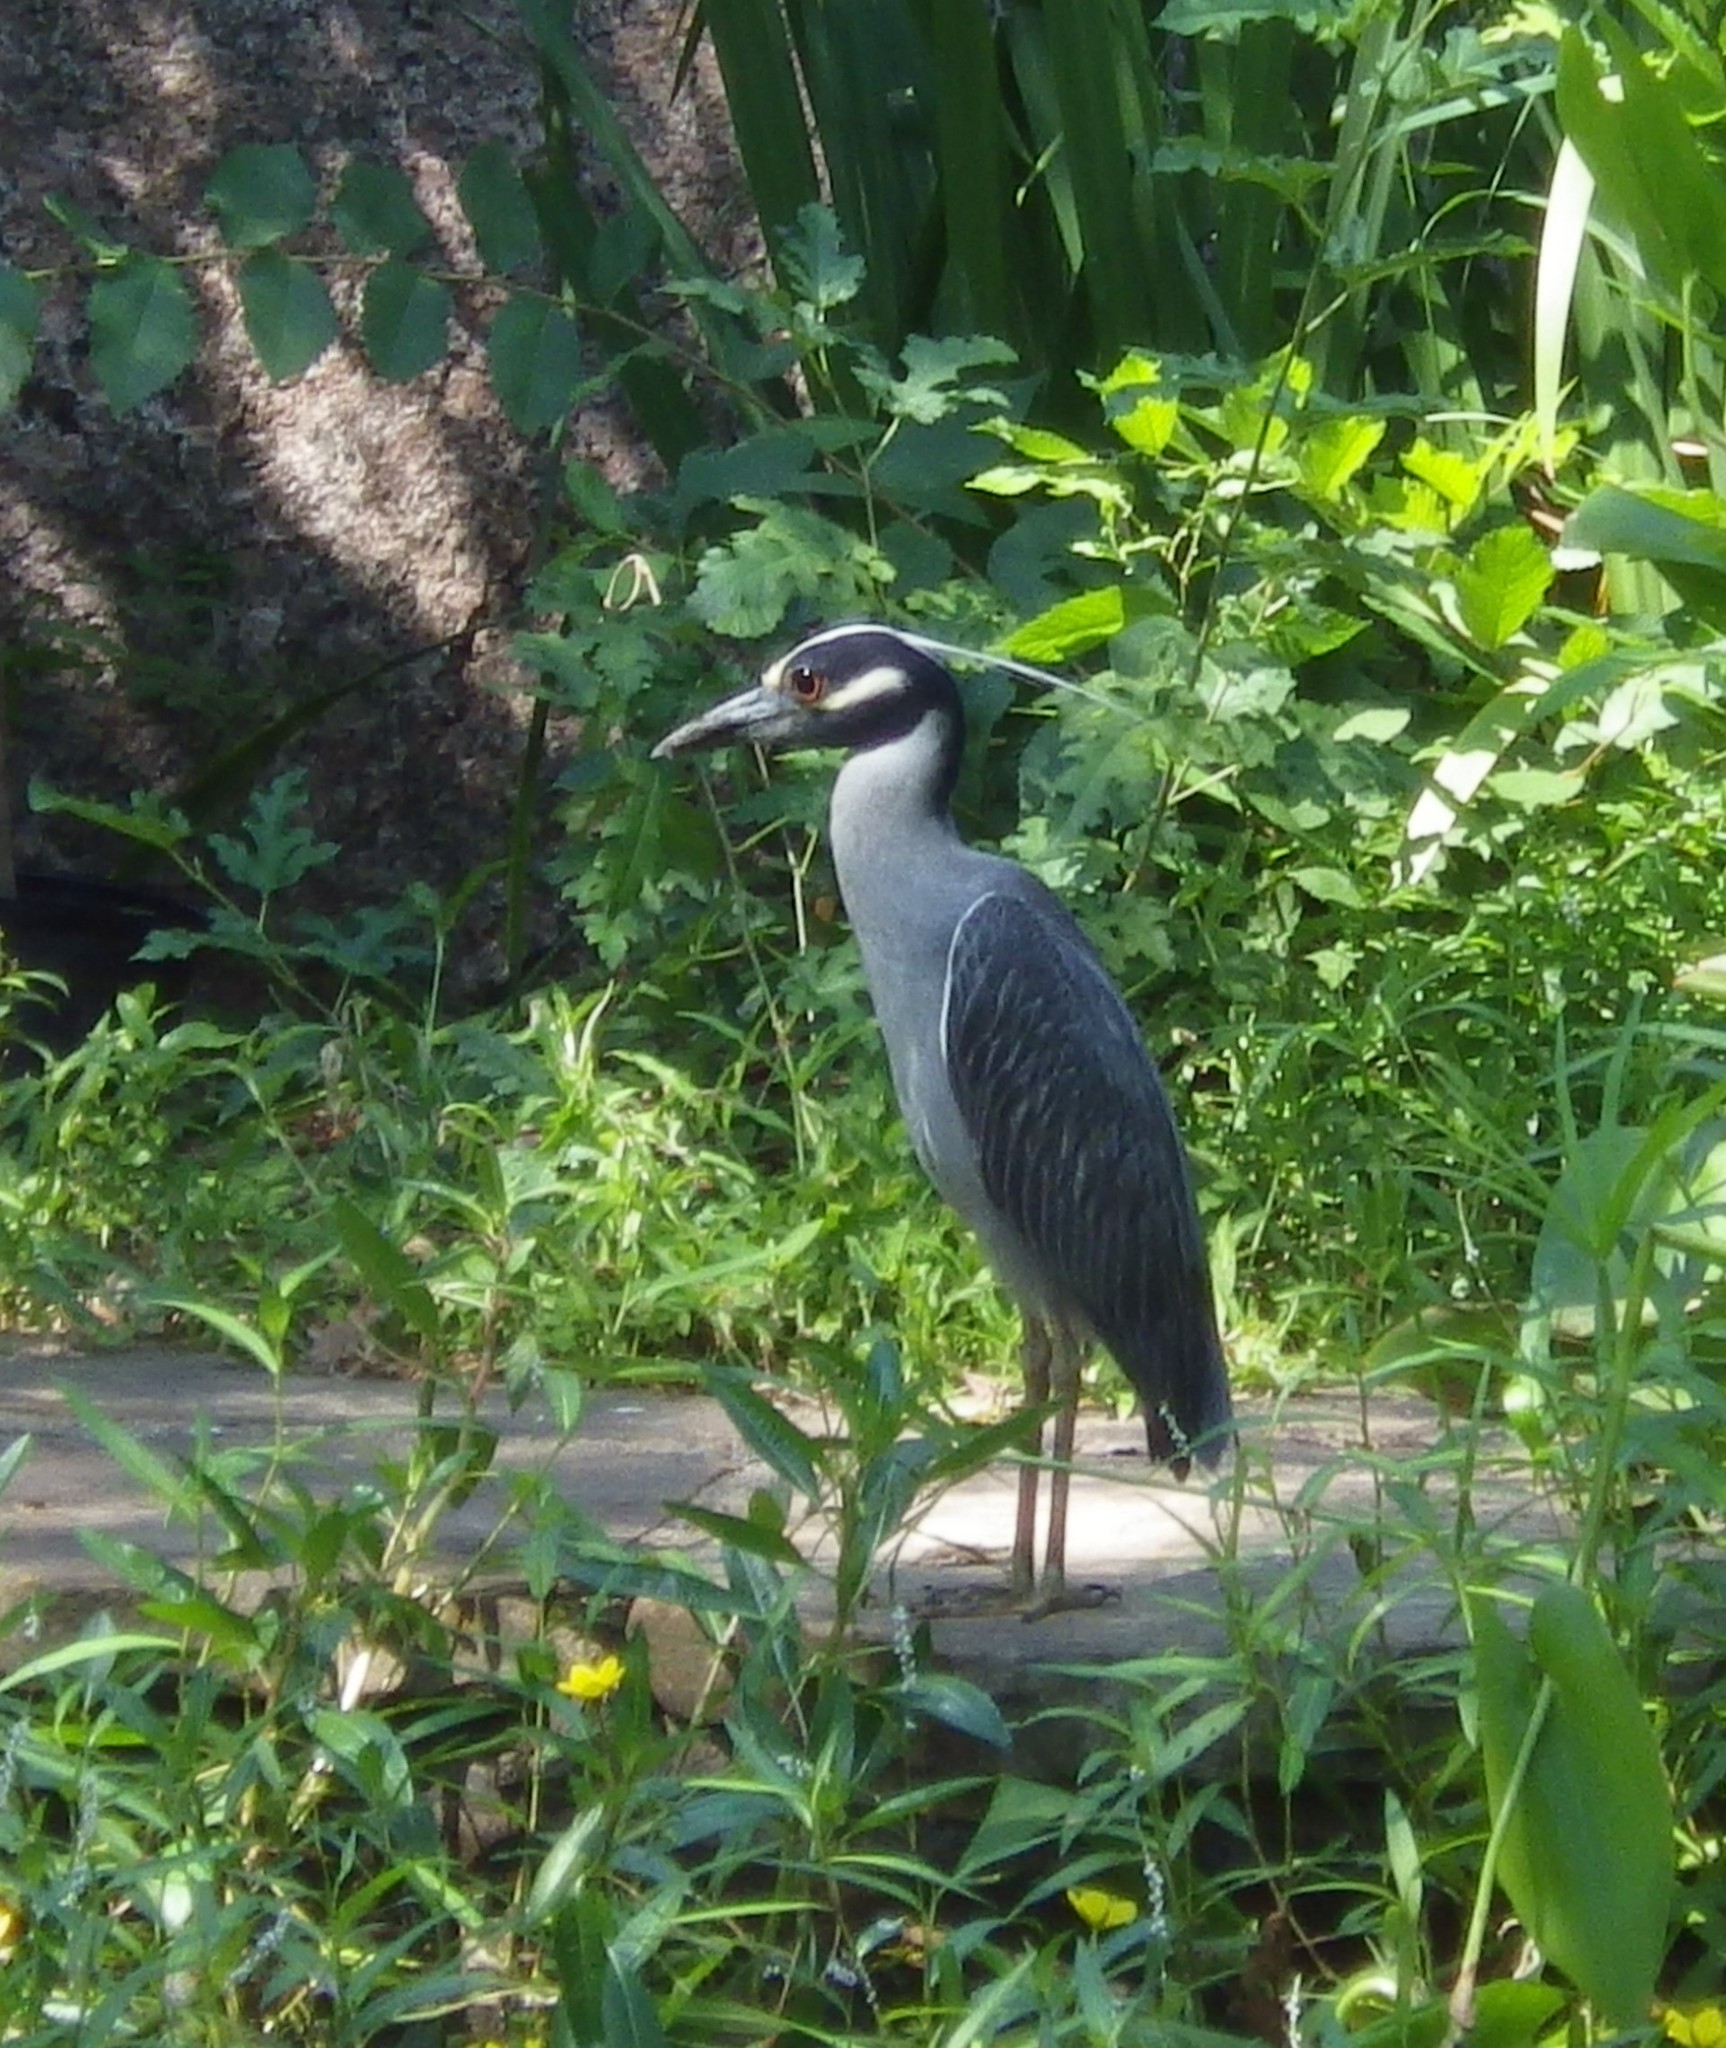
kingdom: Animalia
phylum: Chordata
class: Aves
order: Pelecaniformes
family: Ardeidae
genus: Nyctanassa
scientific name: Nyctanassa violacea
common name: Yellow-crowned night heron
